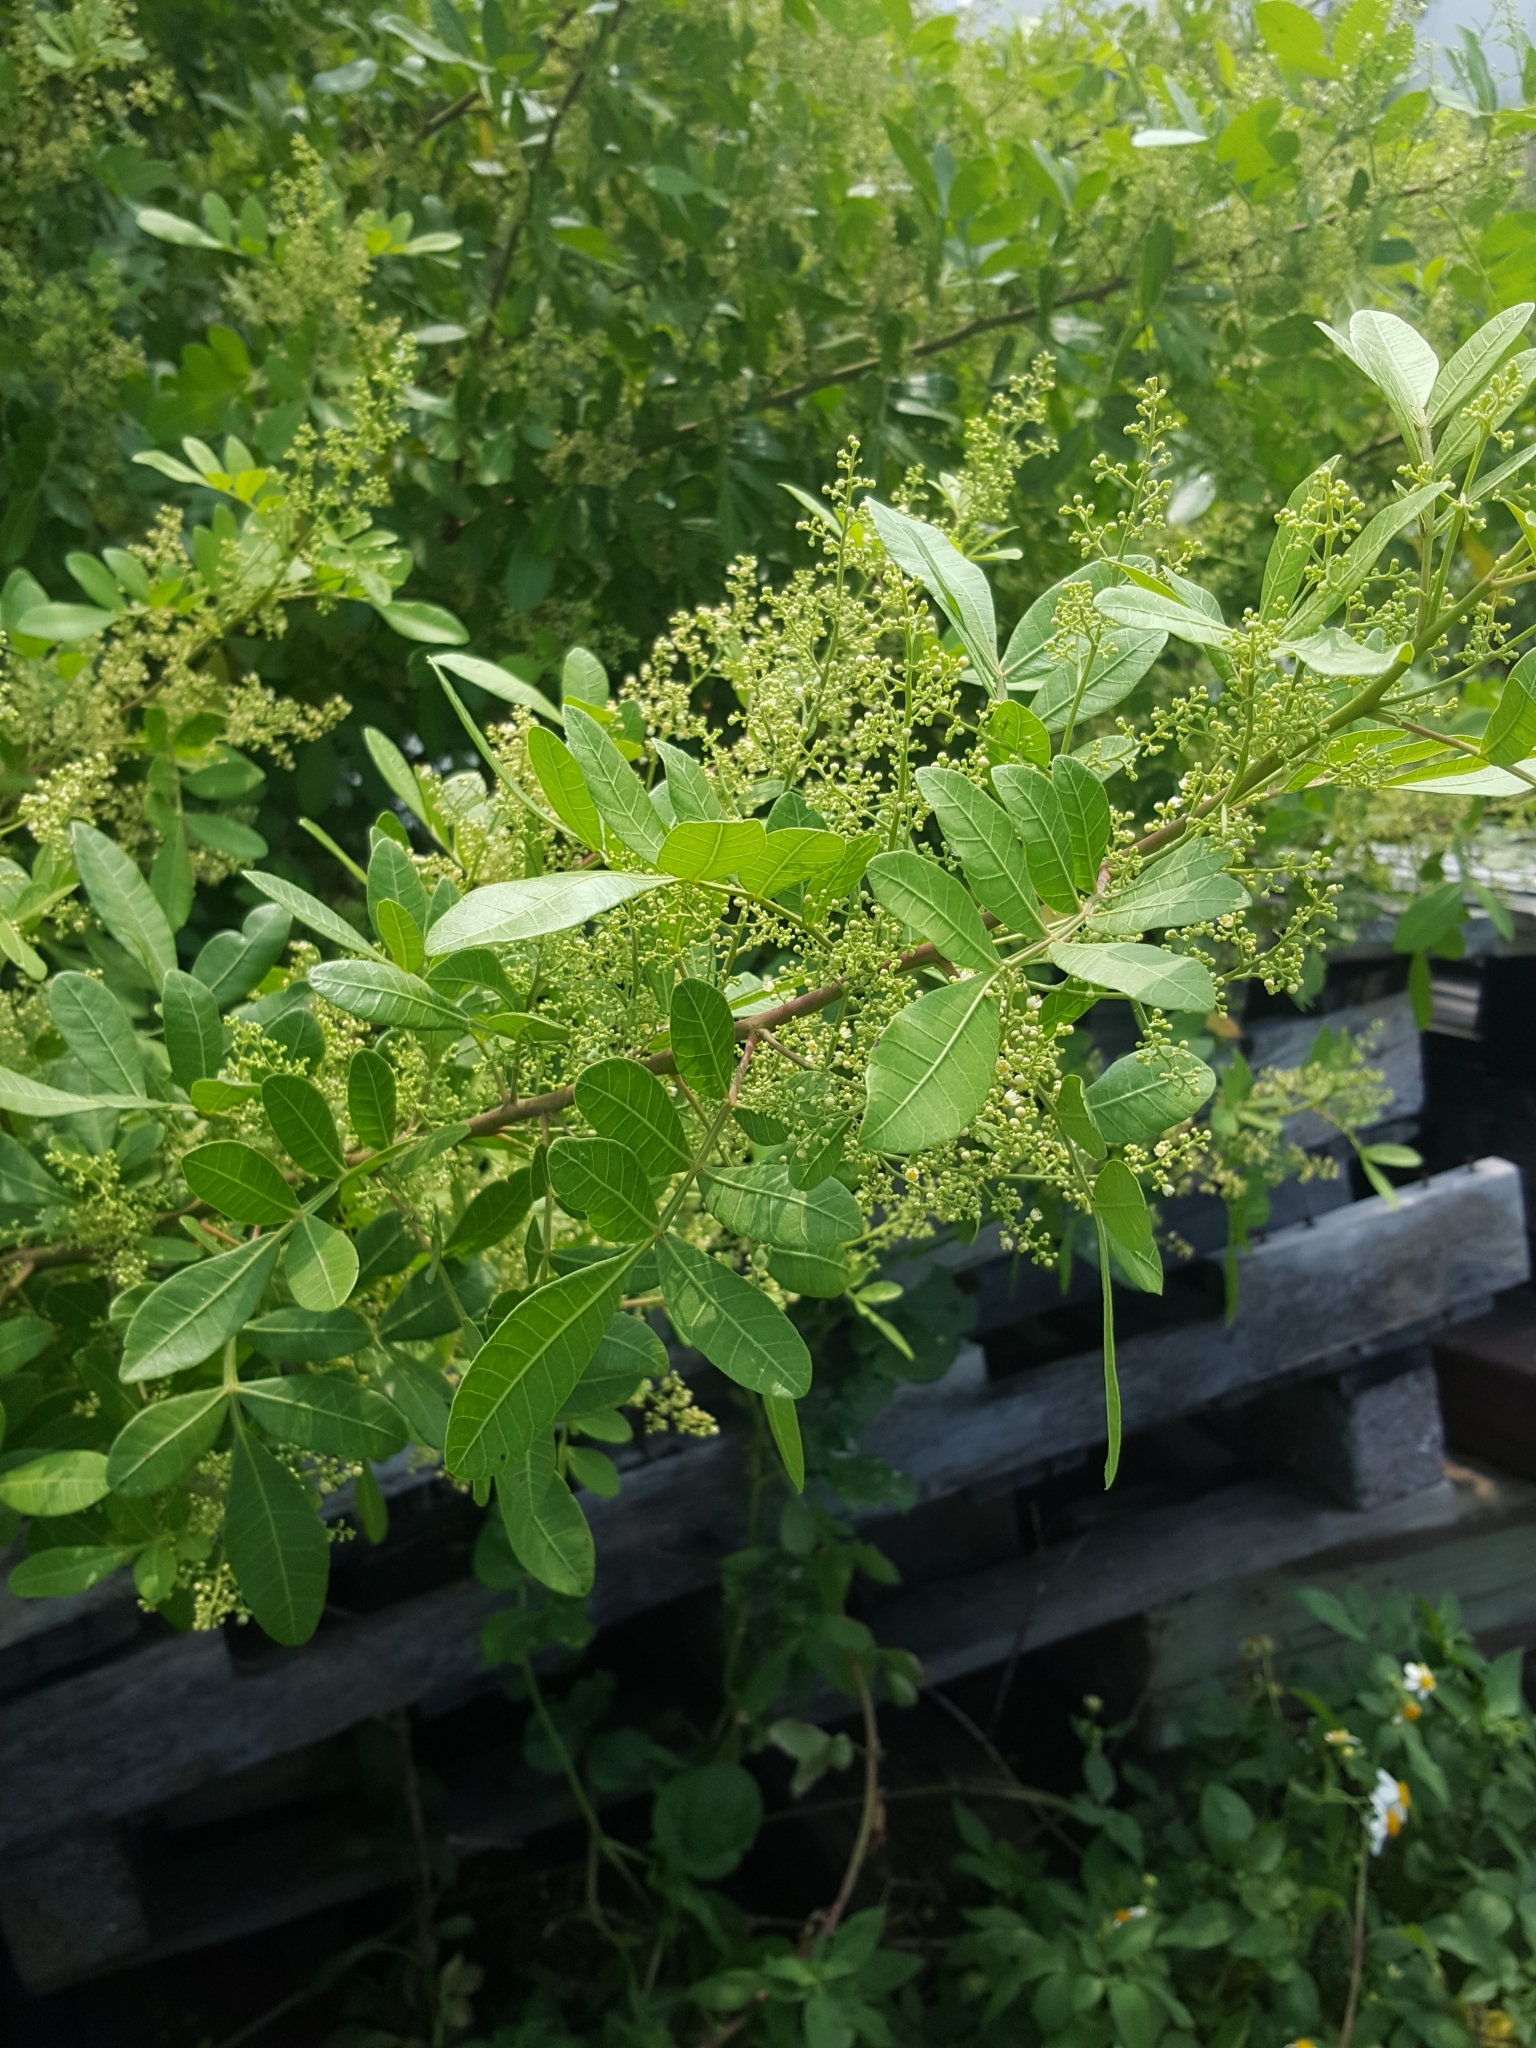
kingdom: Plantae
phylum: Tracheophyta
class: Magnoliopsida
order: Sapindales
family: Anacardiaceae
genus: Schinus
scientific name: Schinus terebinthifolia
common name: Brazilian peppertree
